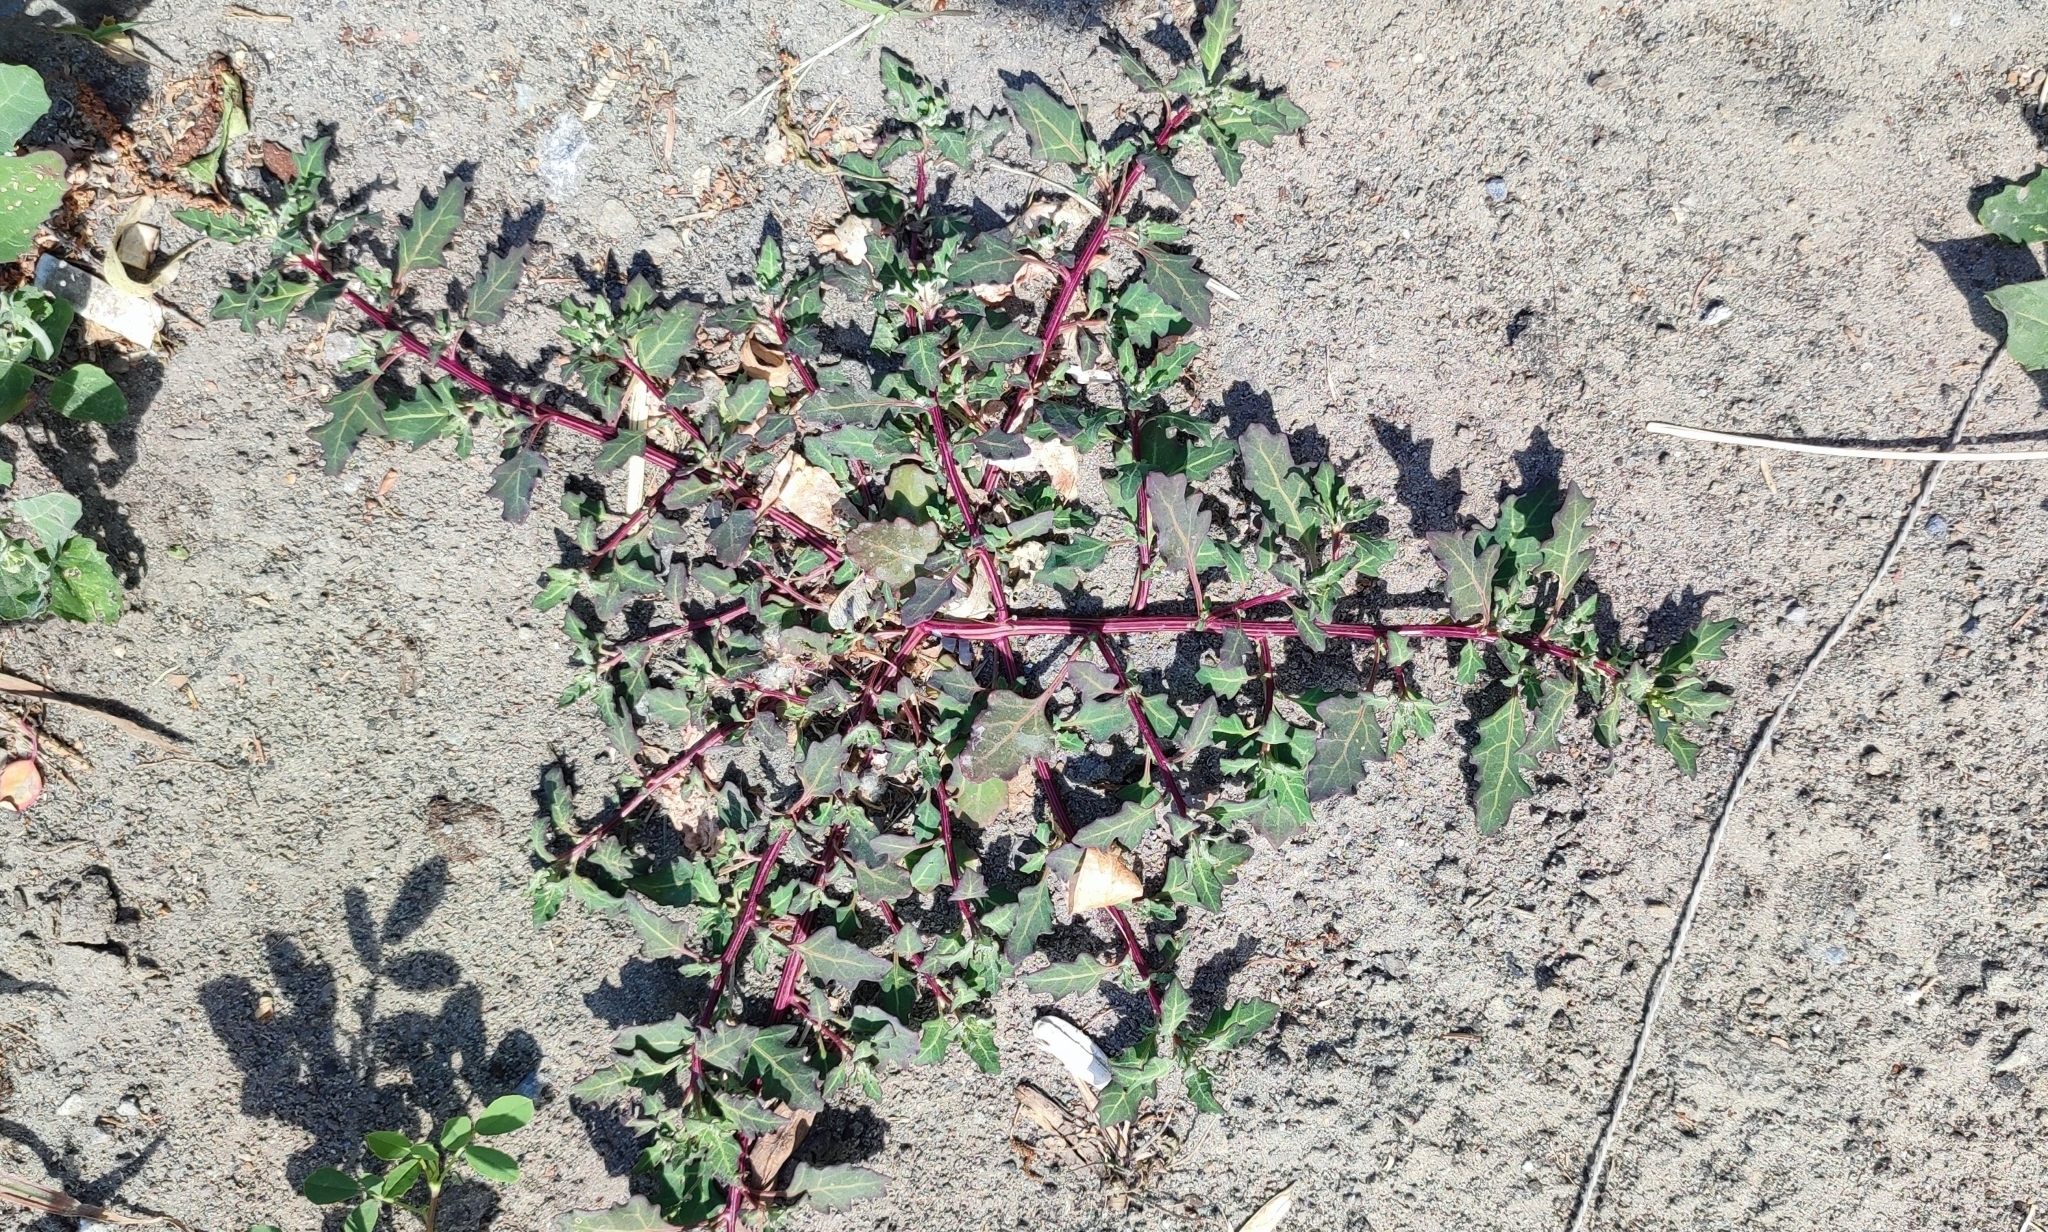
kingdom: Plantae
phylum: Tracheophyta
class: Magnoliopsida
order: Caryophyllales
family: Amaranthaceae
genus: Oxybasis
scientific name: Oxybasis glauca
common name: Glaucous goosefoot
